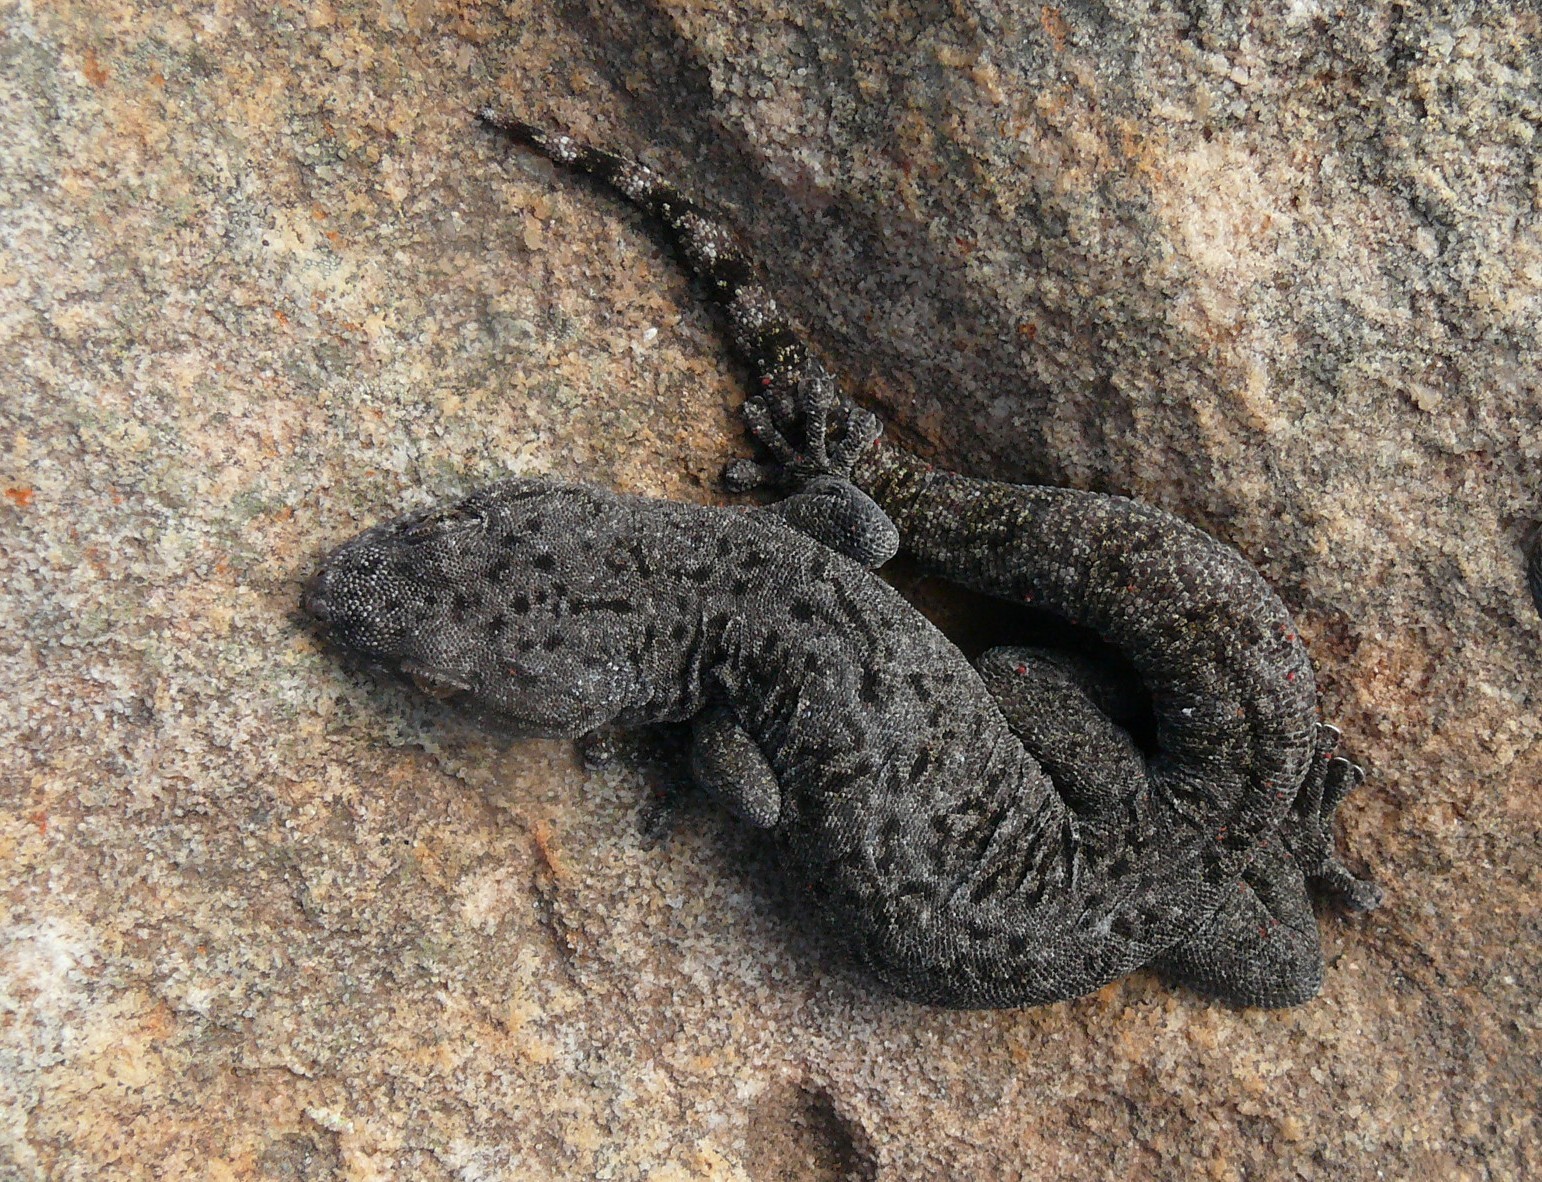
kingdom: Animalia
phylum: Chordata
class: Squamata
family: Gekkonidae
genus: Goggia
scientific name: Goggia microlepidota
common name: Small-scaled leaf-toed lecko
